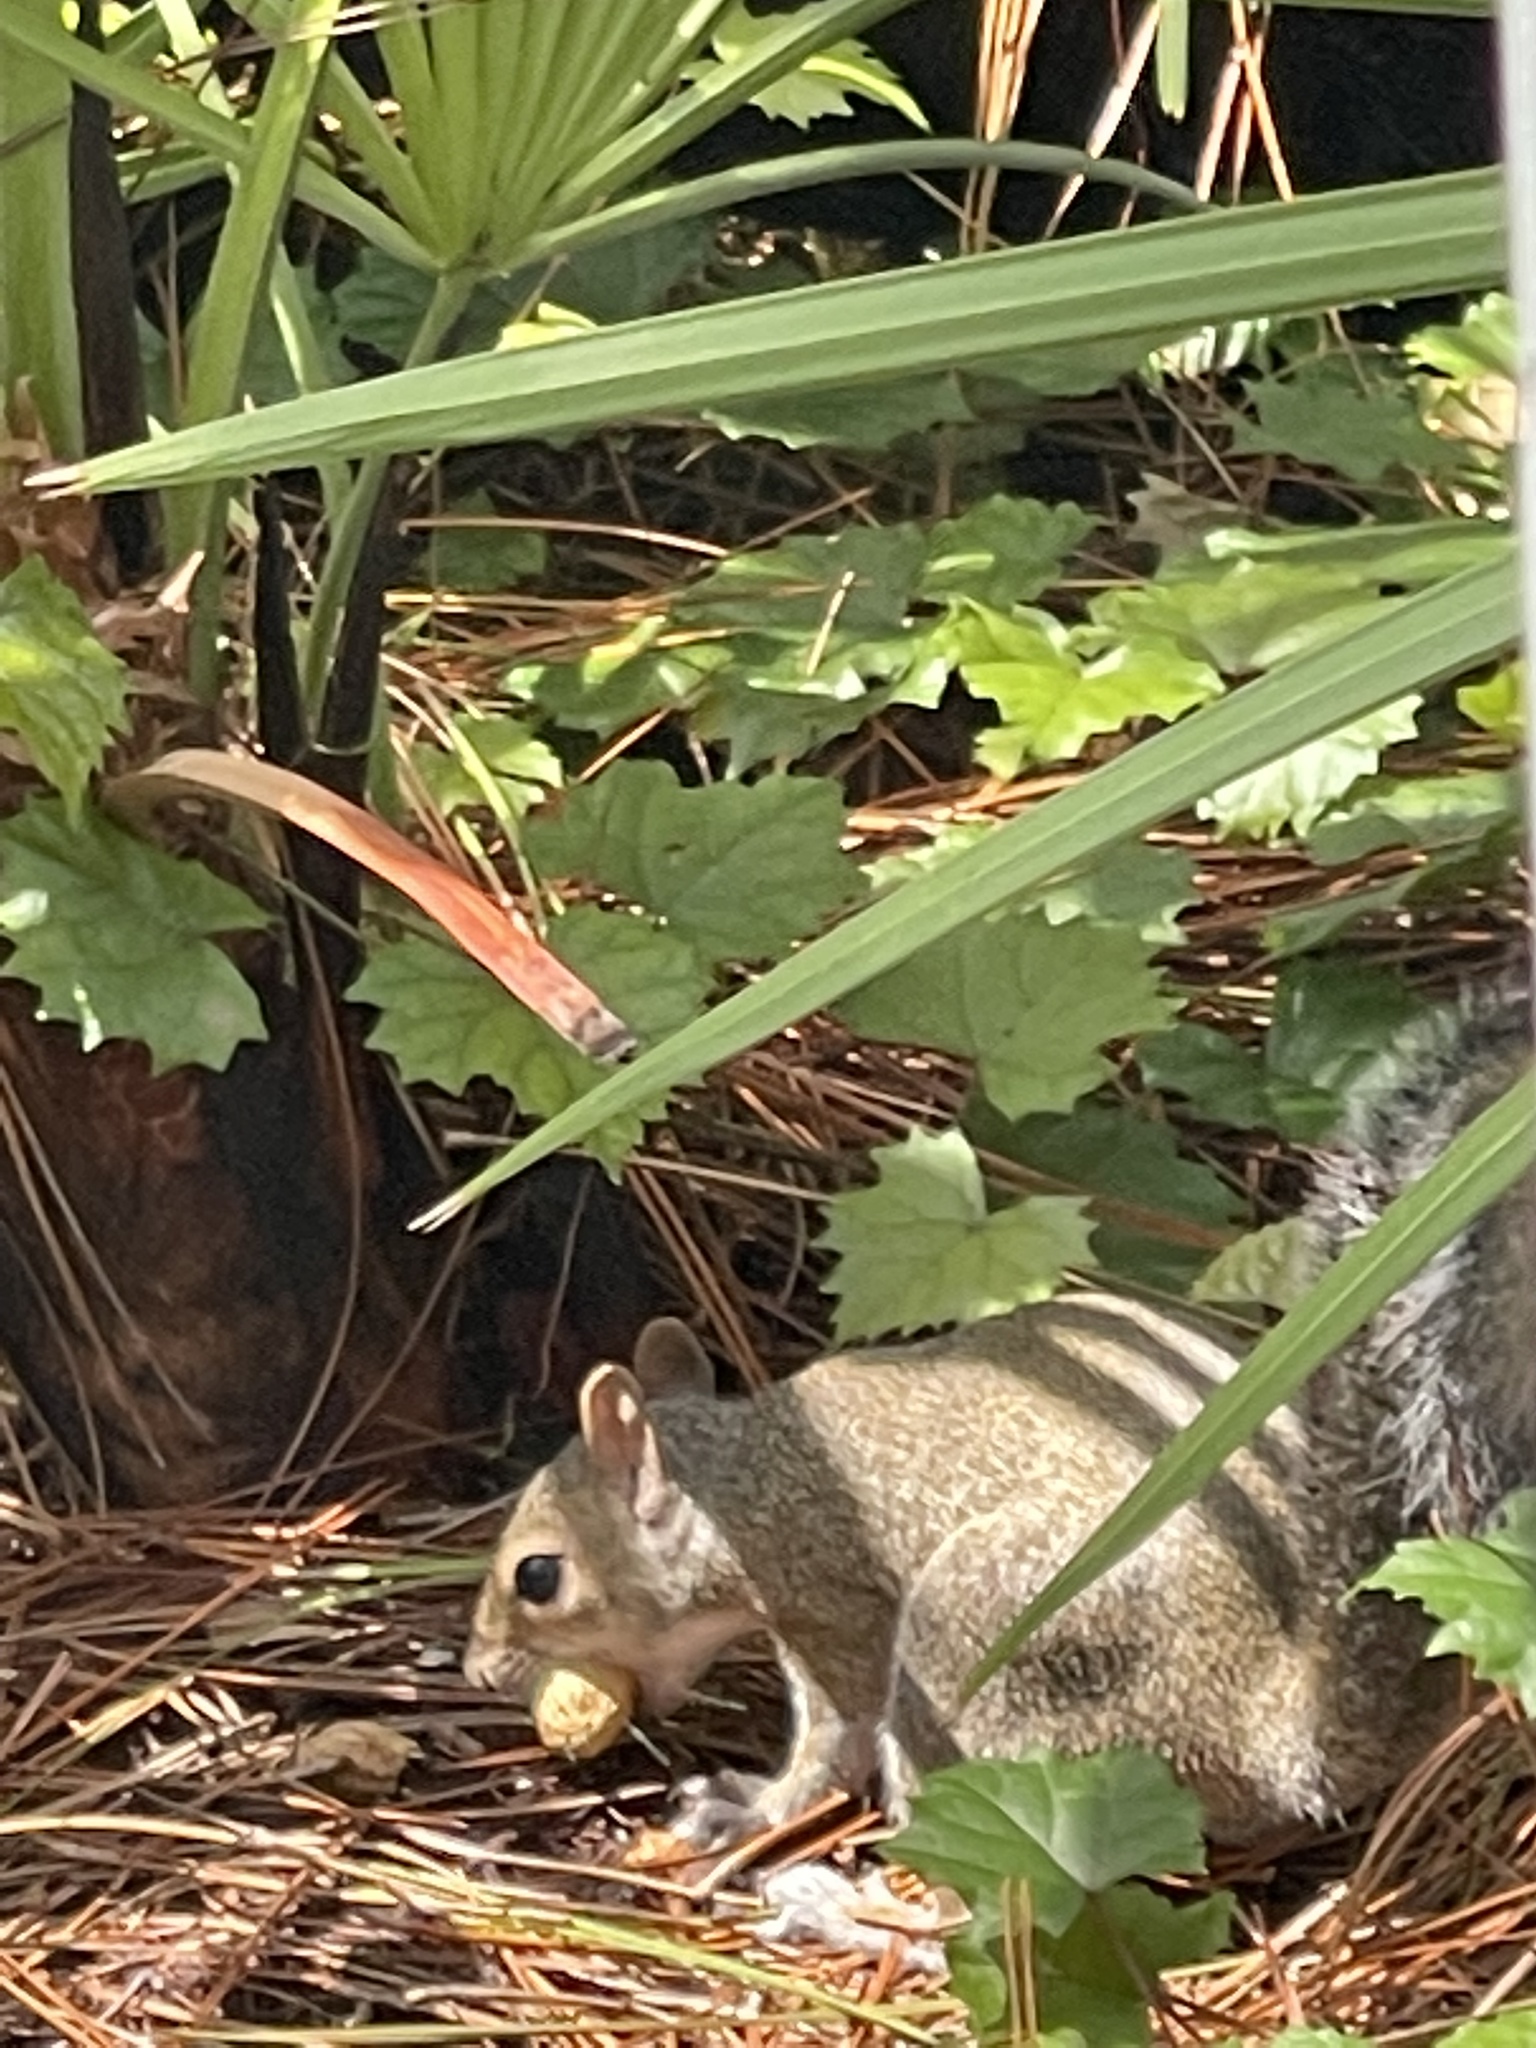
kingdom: Animalia
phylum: Chordata
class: Mammalia
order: Rodentia
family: Sciuridae
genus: Sciurus
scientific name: Sciurus carolinensis
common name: Eastern gray squirrel
